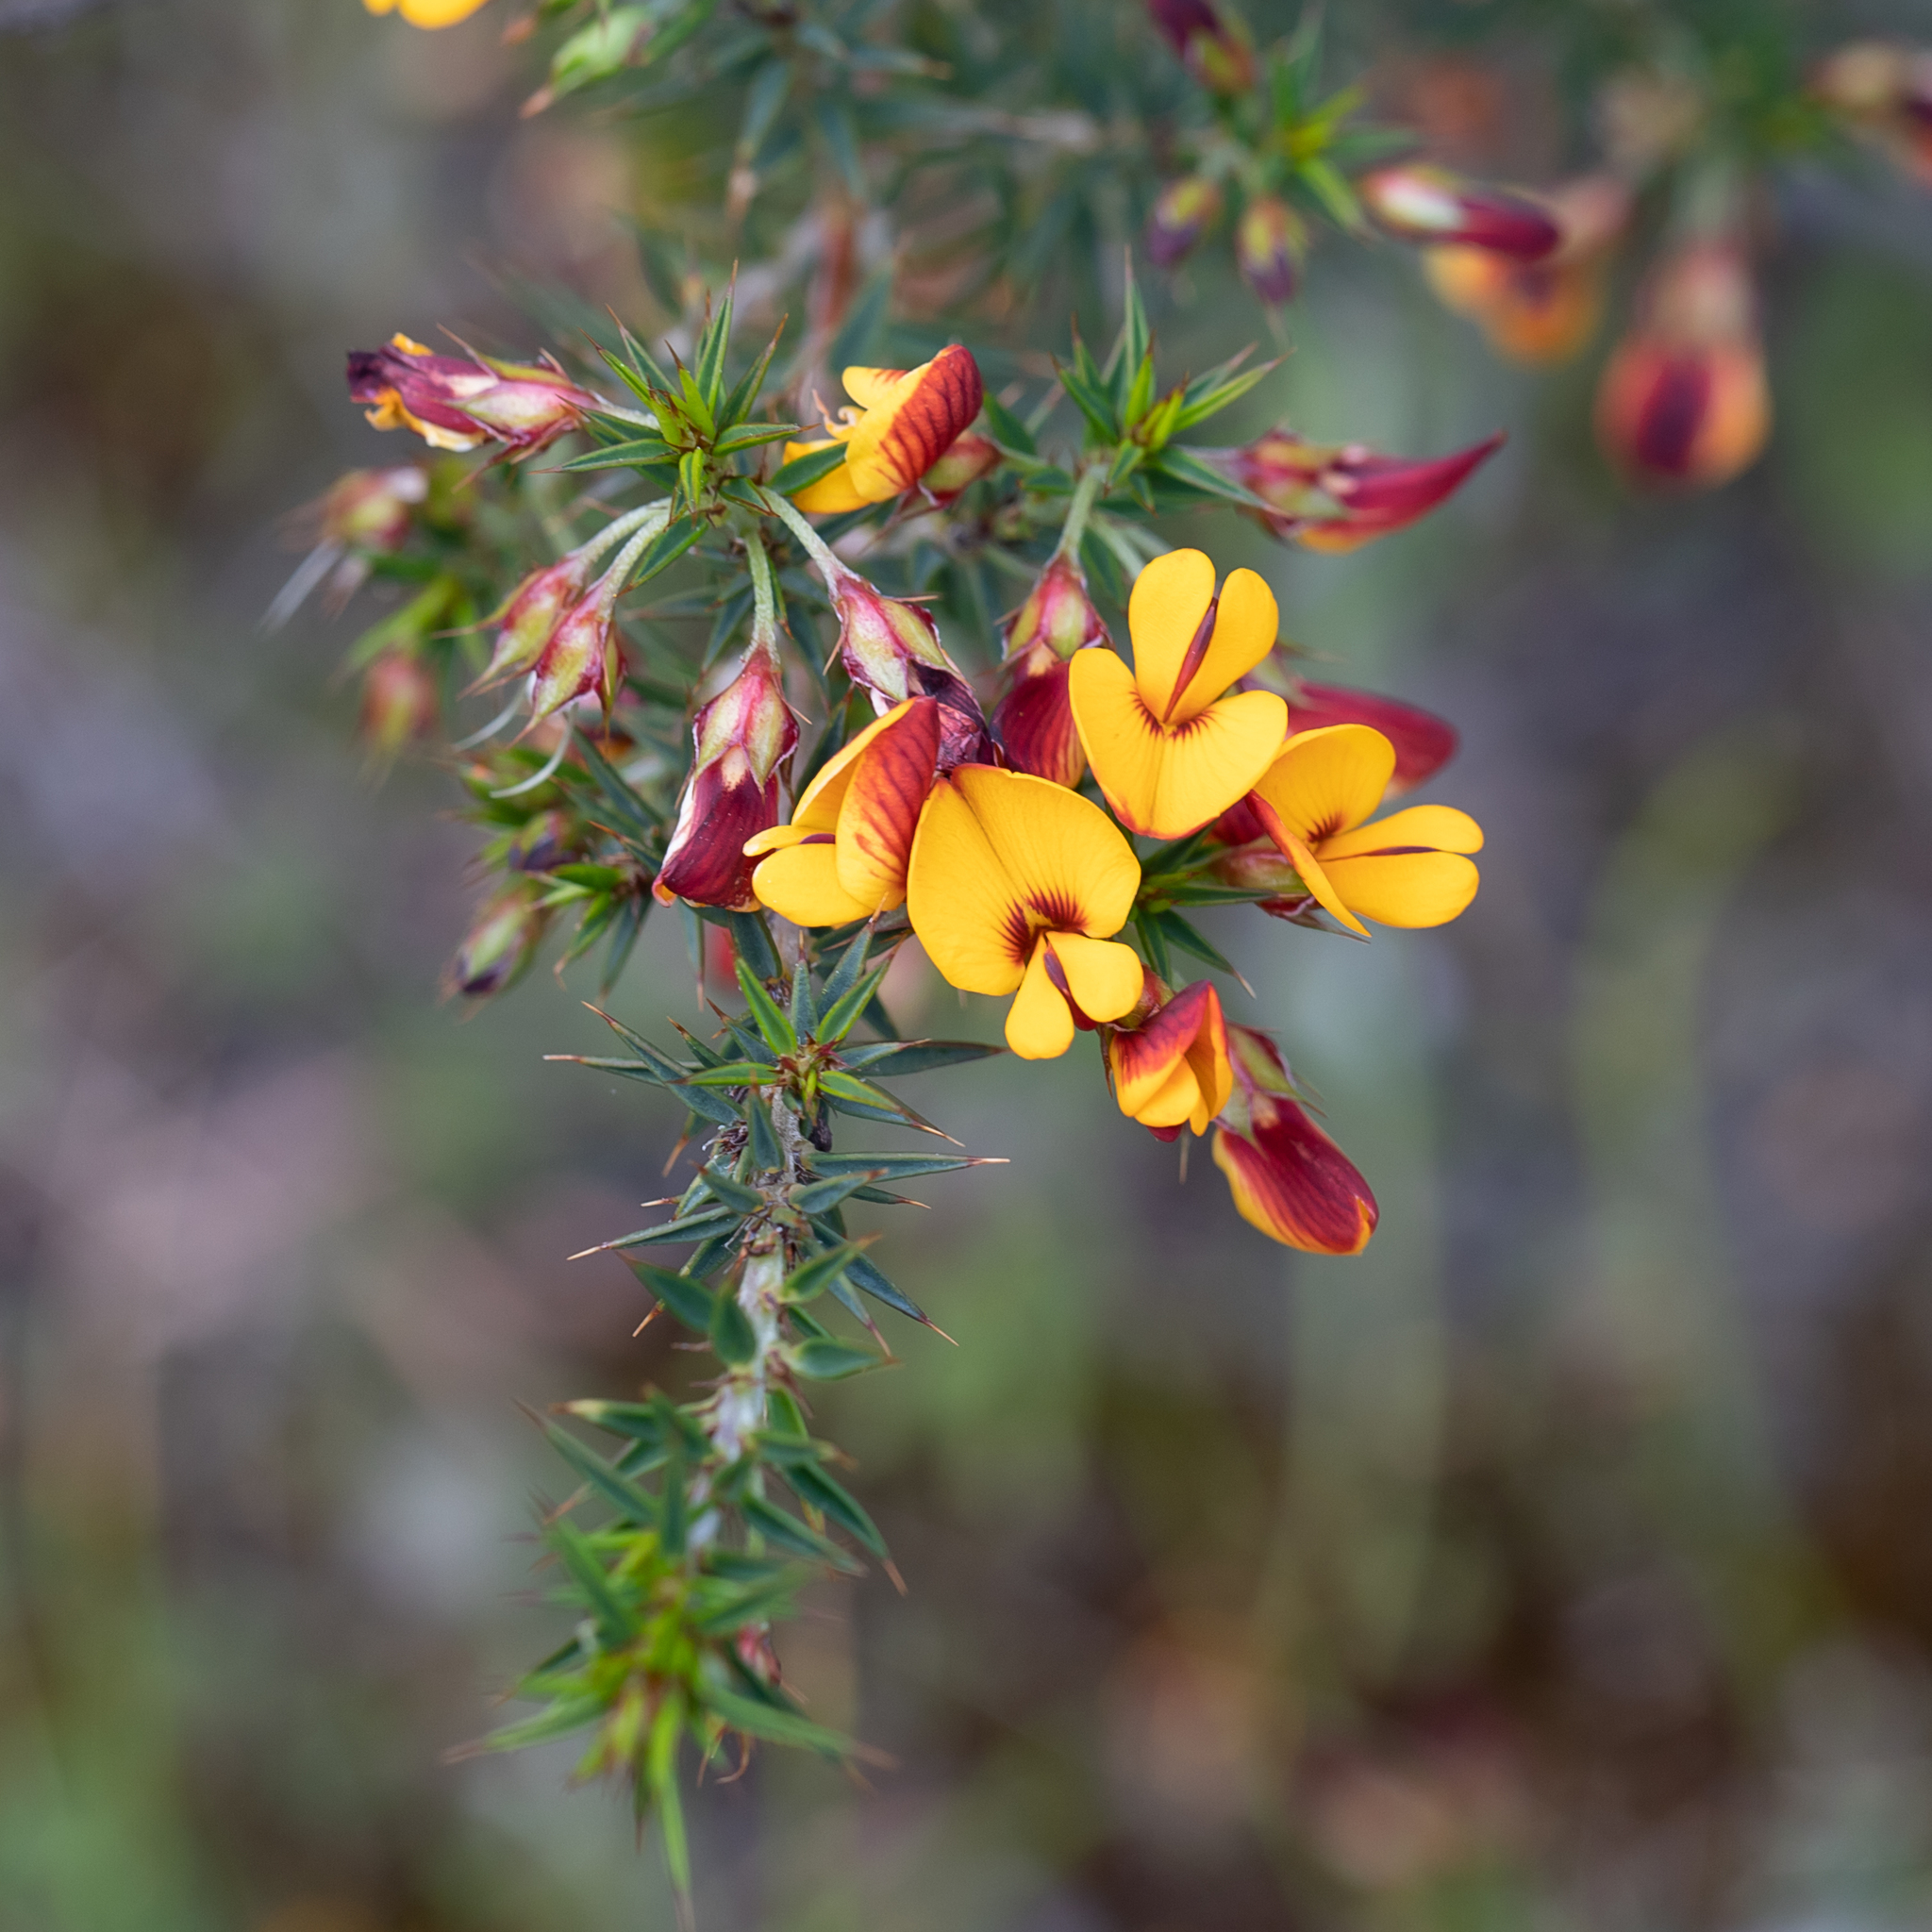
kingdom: Plantae
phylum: Tracheophyta
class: Magnoliopsida
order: Fabales
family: Fabaceae
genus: Pultenaea
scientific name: Pultenaea acerosa
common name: Bristly bush-pea
